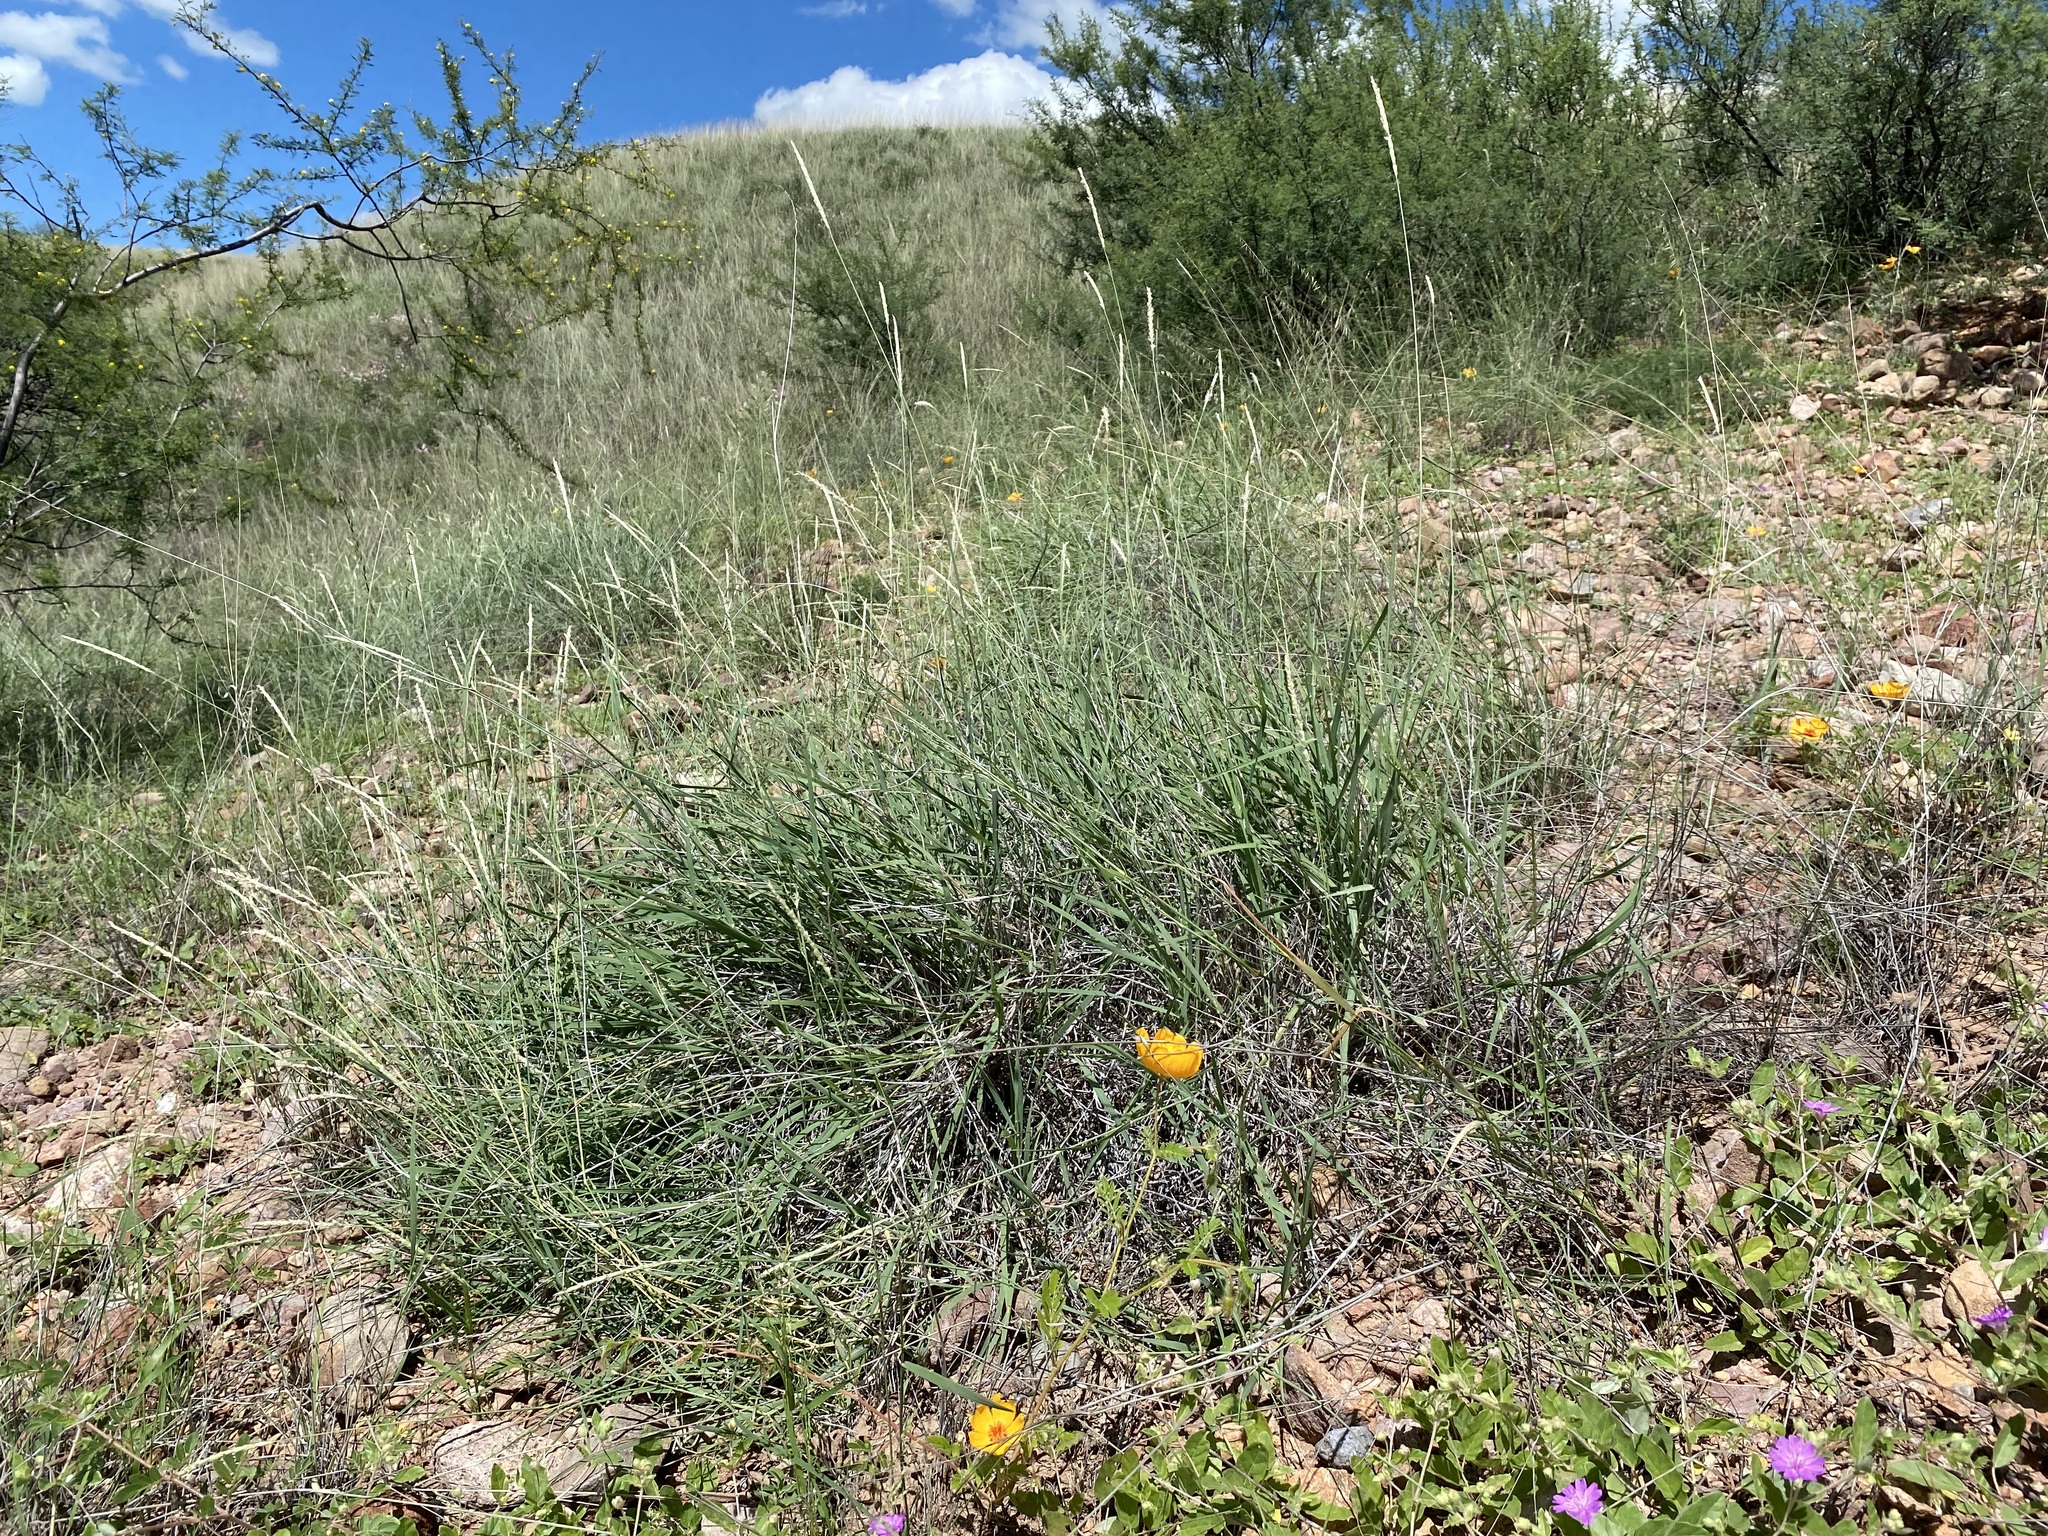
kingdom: Plantae
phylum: Tracheophyta
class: Liliopsida
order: Poales
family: Poaceae
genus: Hilaria
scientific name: Hilaria mutica
